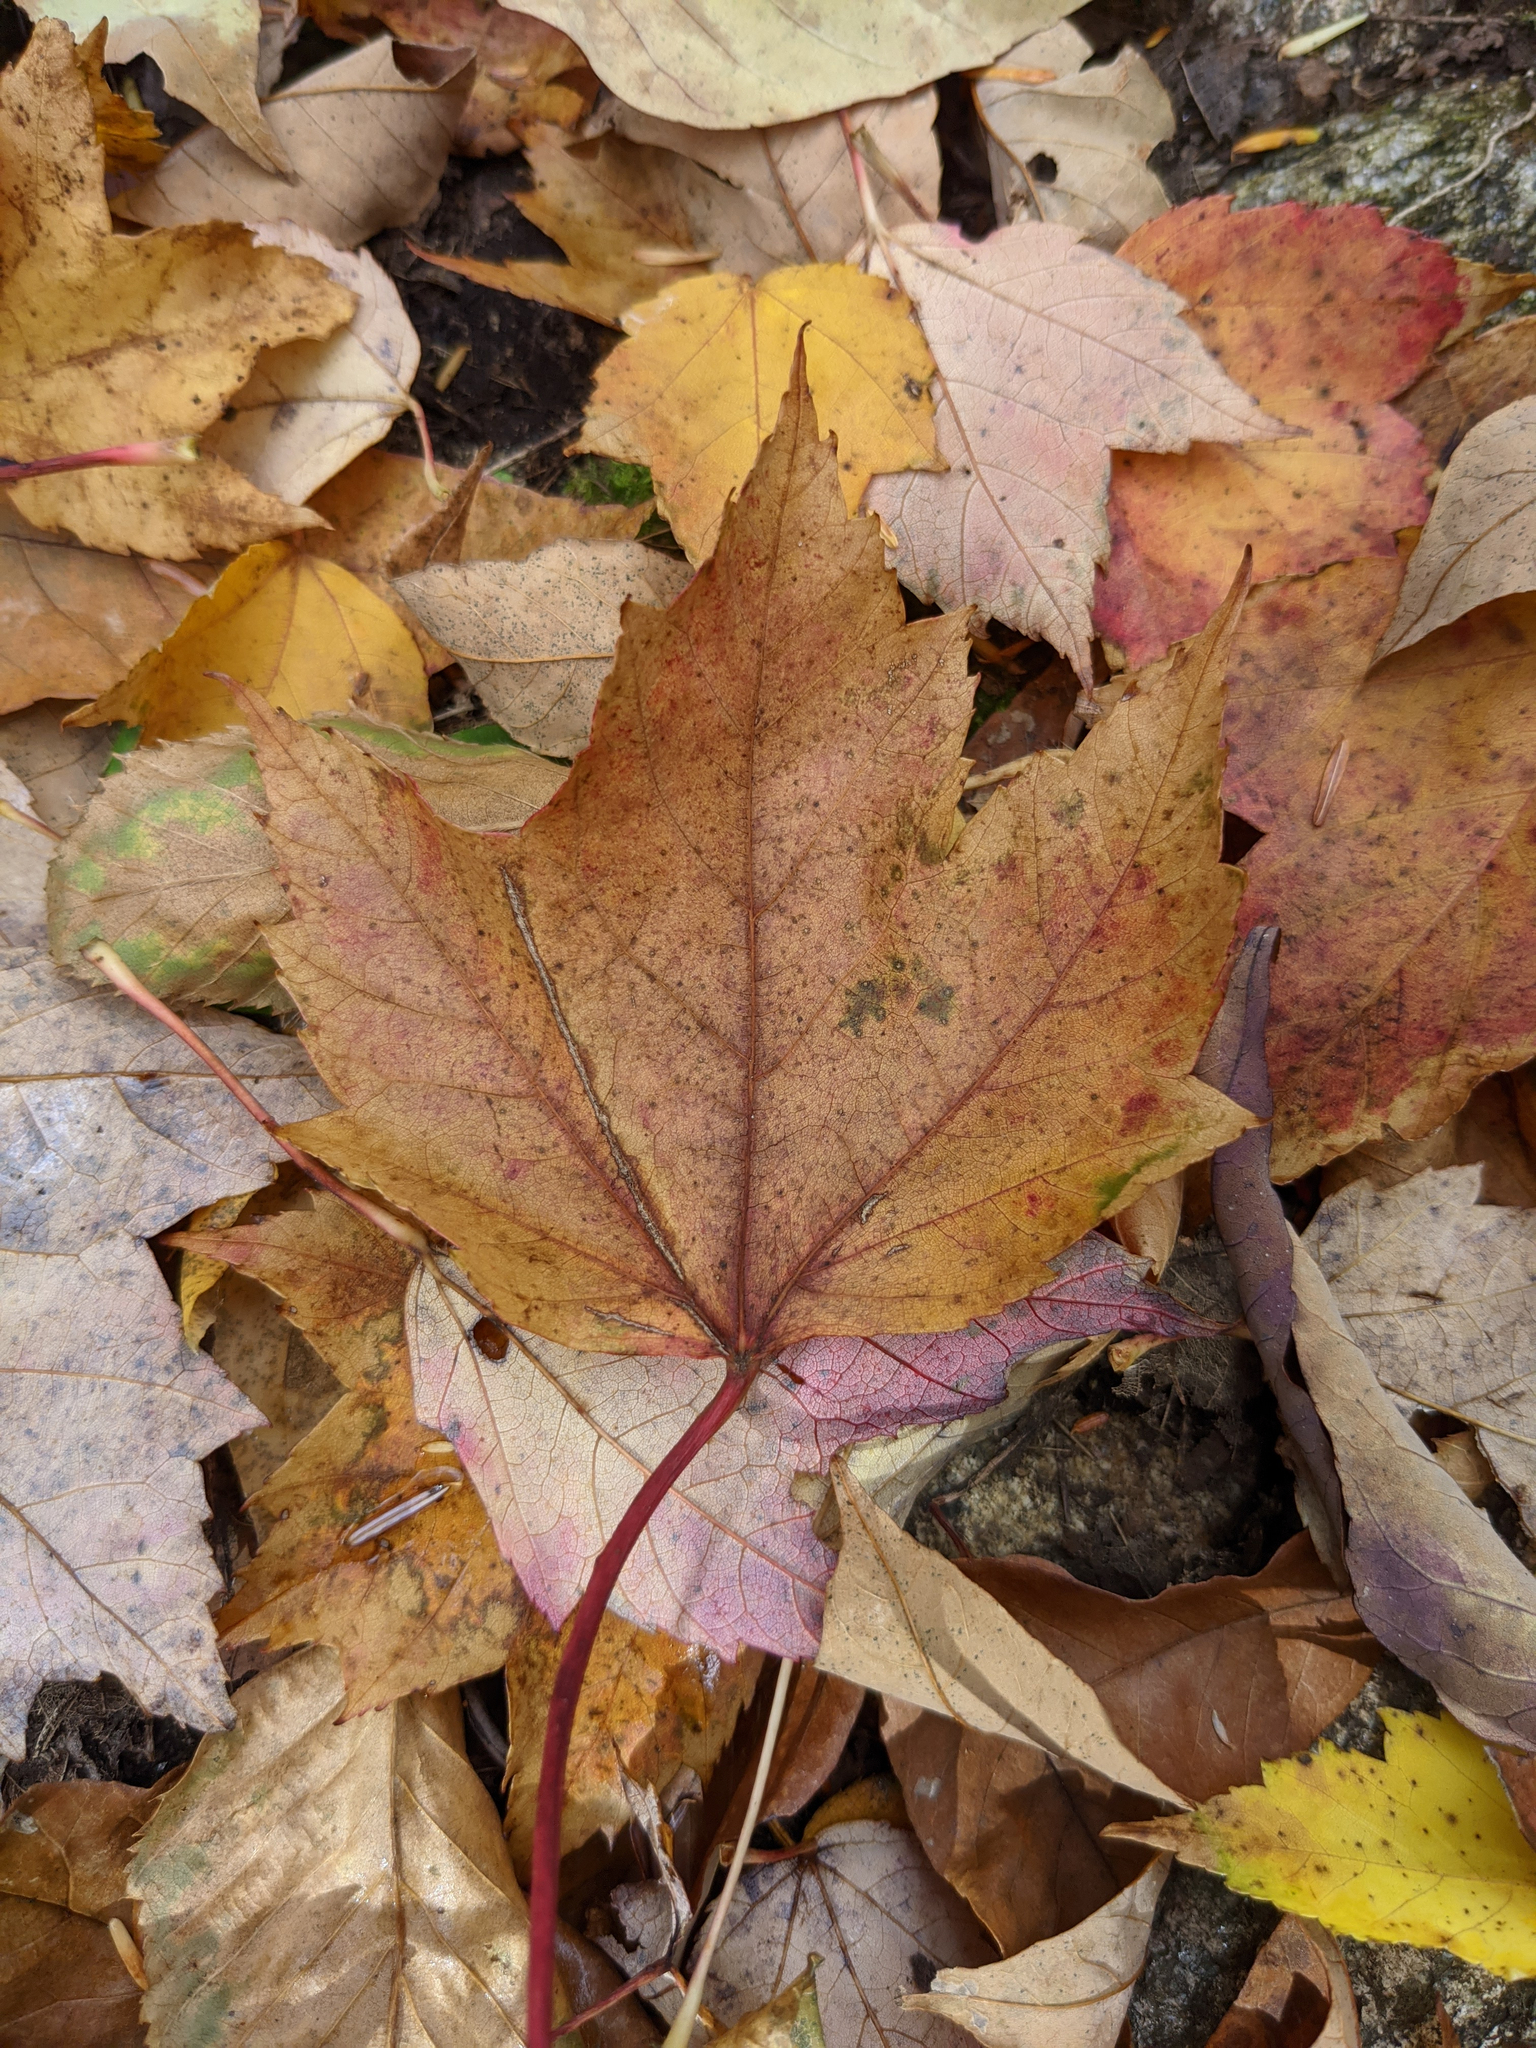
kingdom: Plantae
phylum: Tracheophyta
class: Magnoliopsida
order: Sapindales
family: Sapindaceae
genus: Acer
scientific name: Acer rubrum
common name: Red maple
